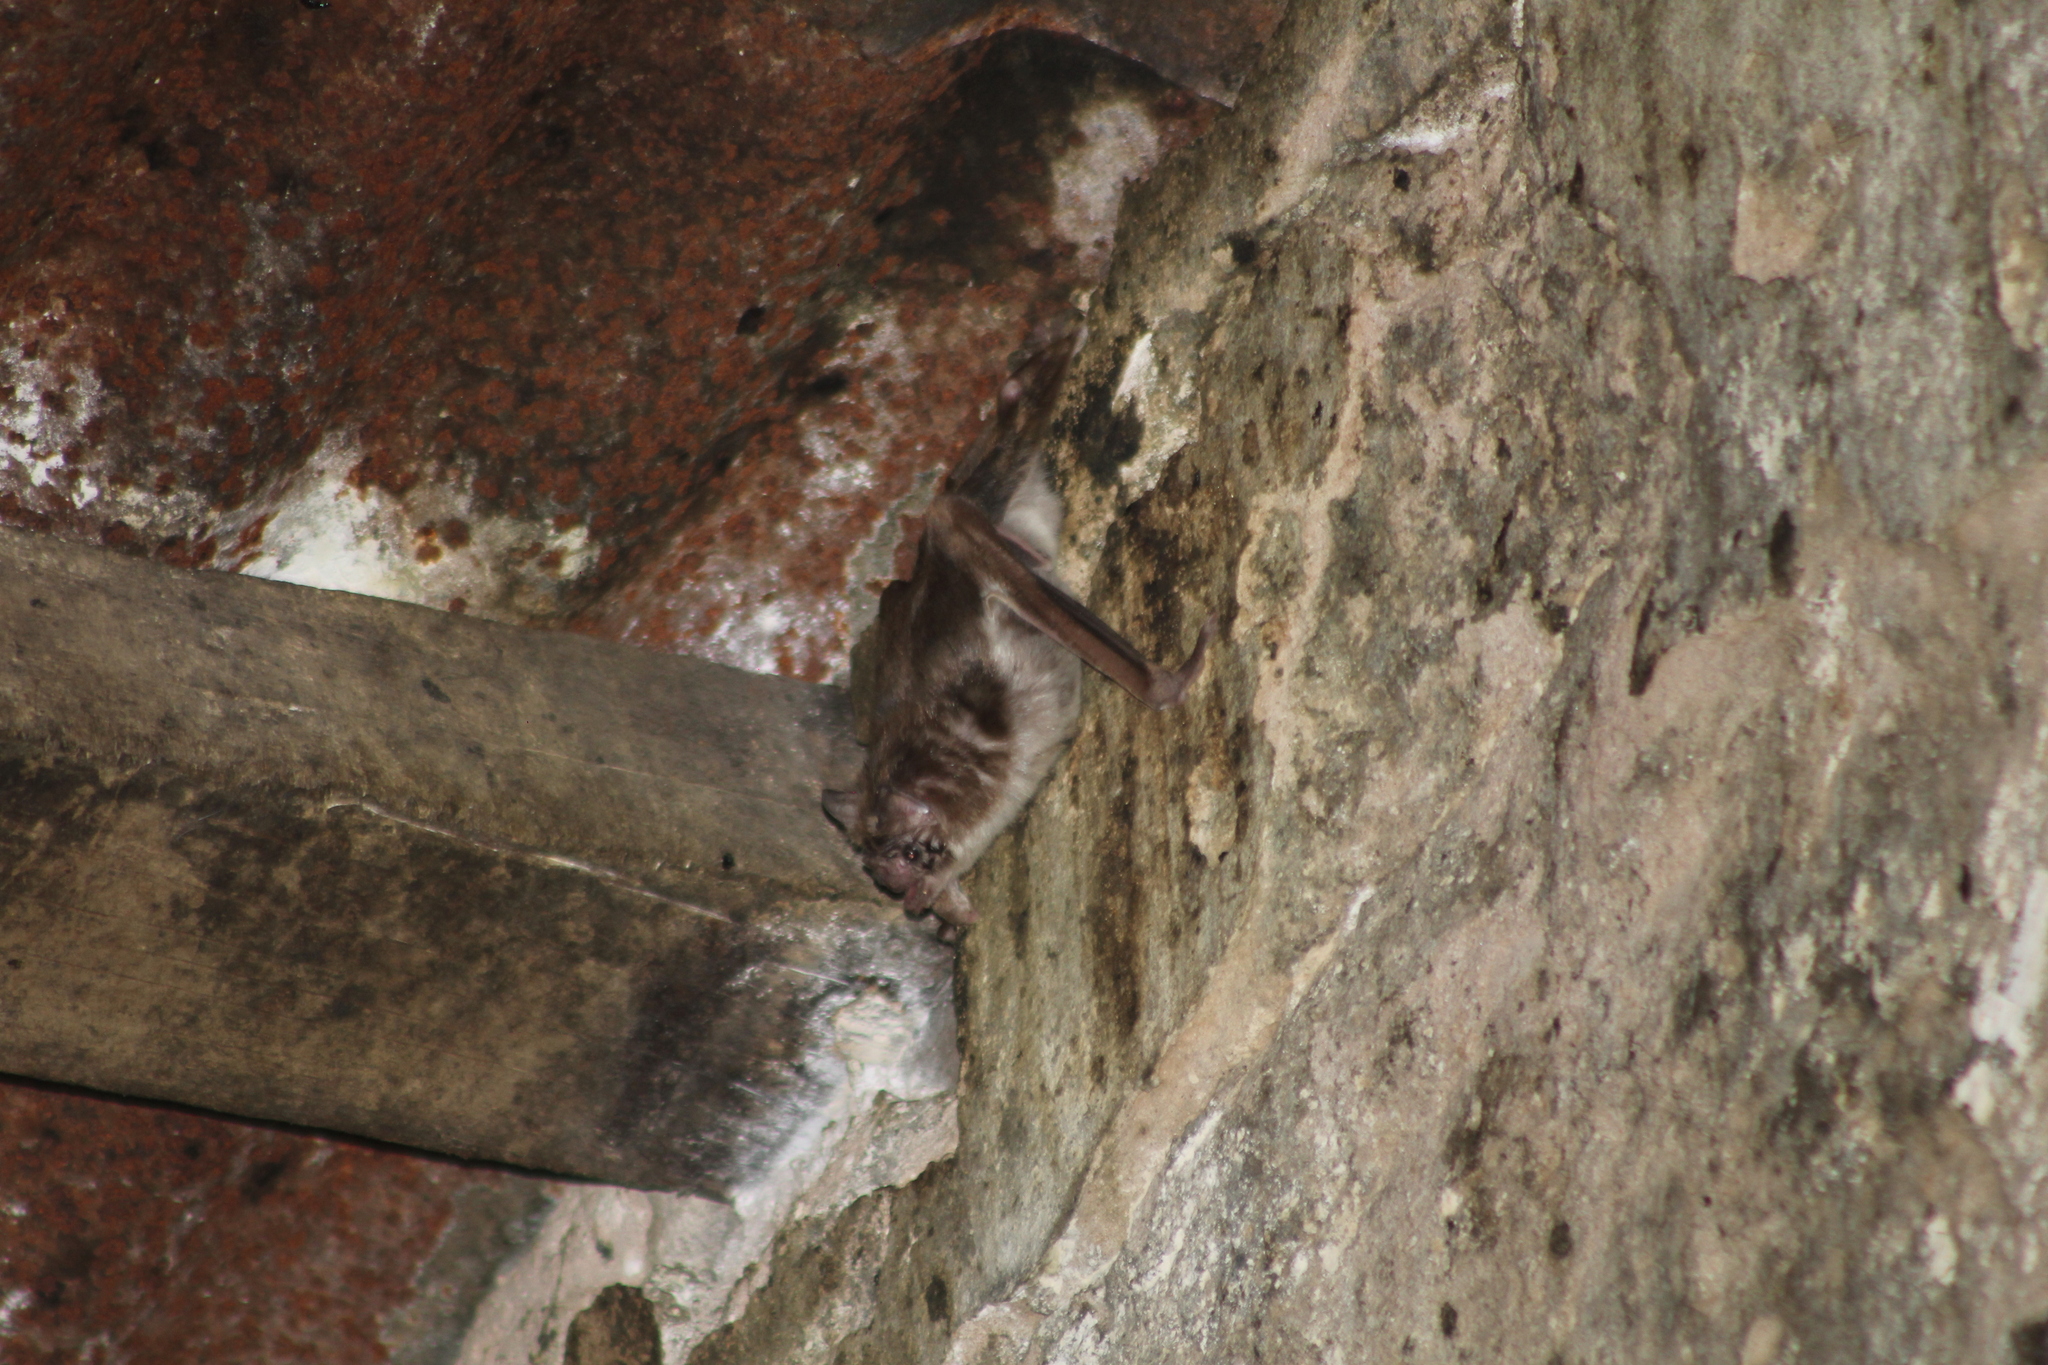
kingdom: Animalia
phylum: Chordata
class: Mammalia
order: Chiroptera
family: Phyllostomidae
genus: Desmodus
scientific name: Desmodus rotundus
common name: Common vampire bat
